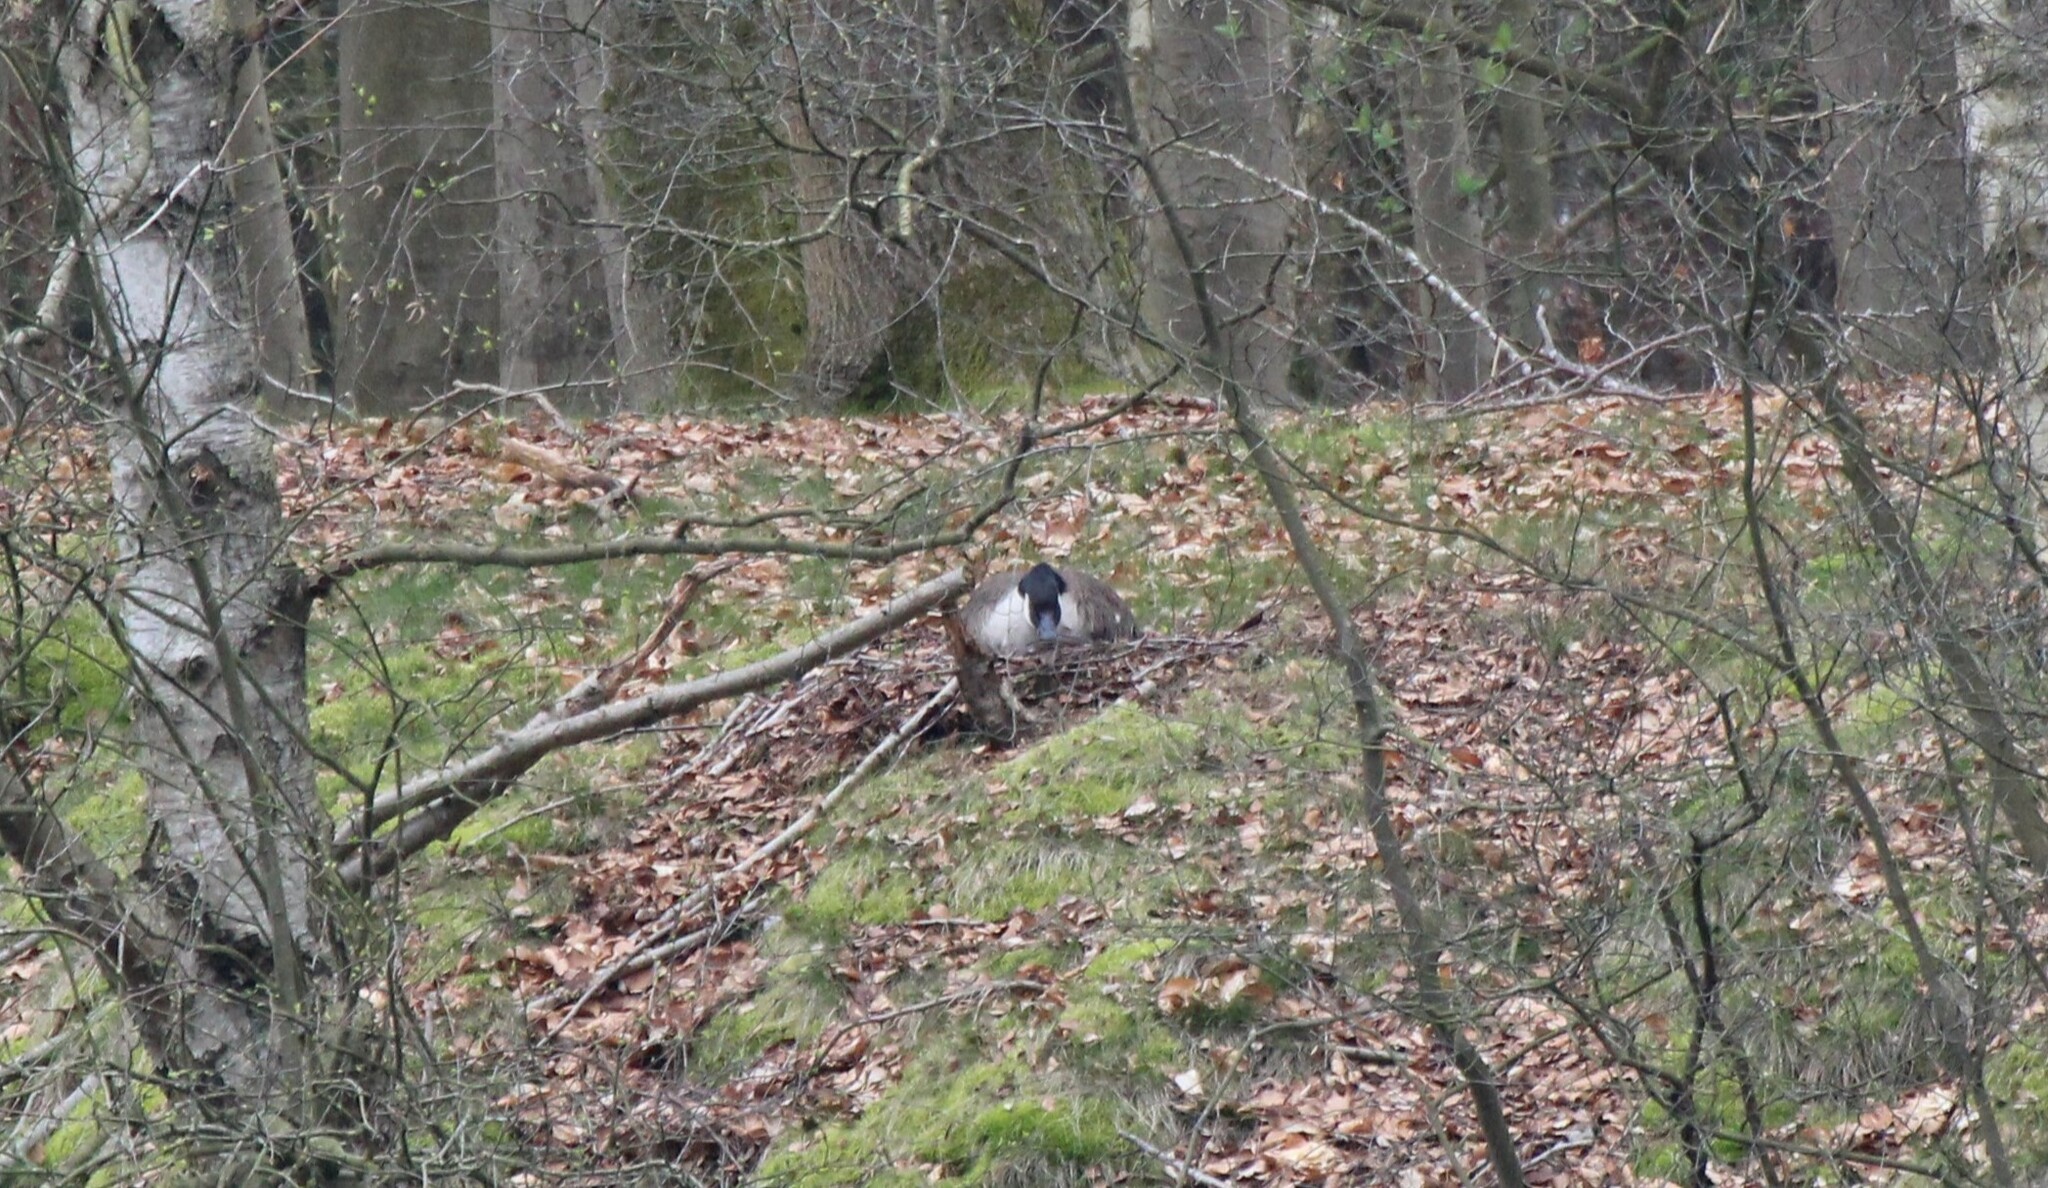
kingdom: Animalia
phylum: Chordata
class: Aves
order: Anseriformes
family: Anatidae
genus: Branta
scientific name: Branta canadensis
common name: Canada goose
